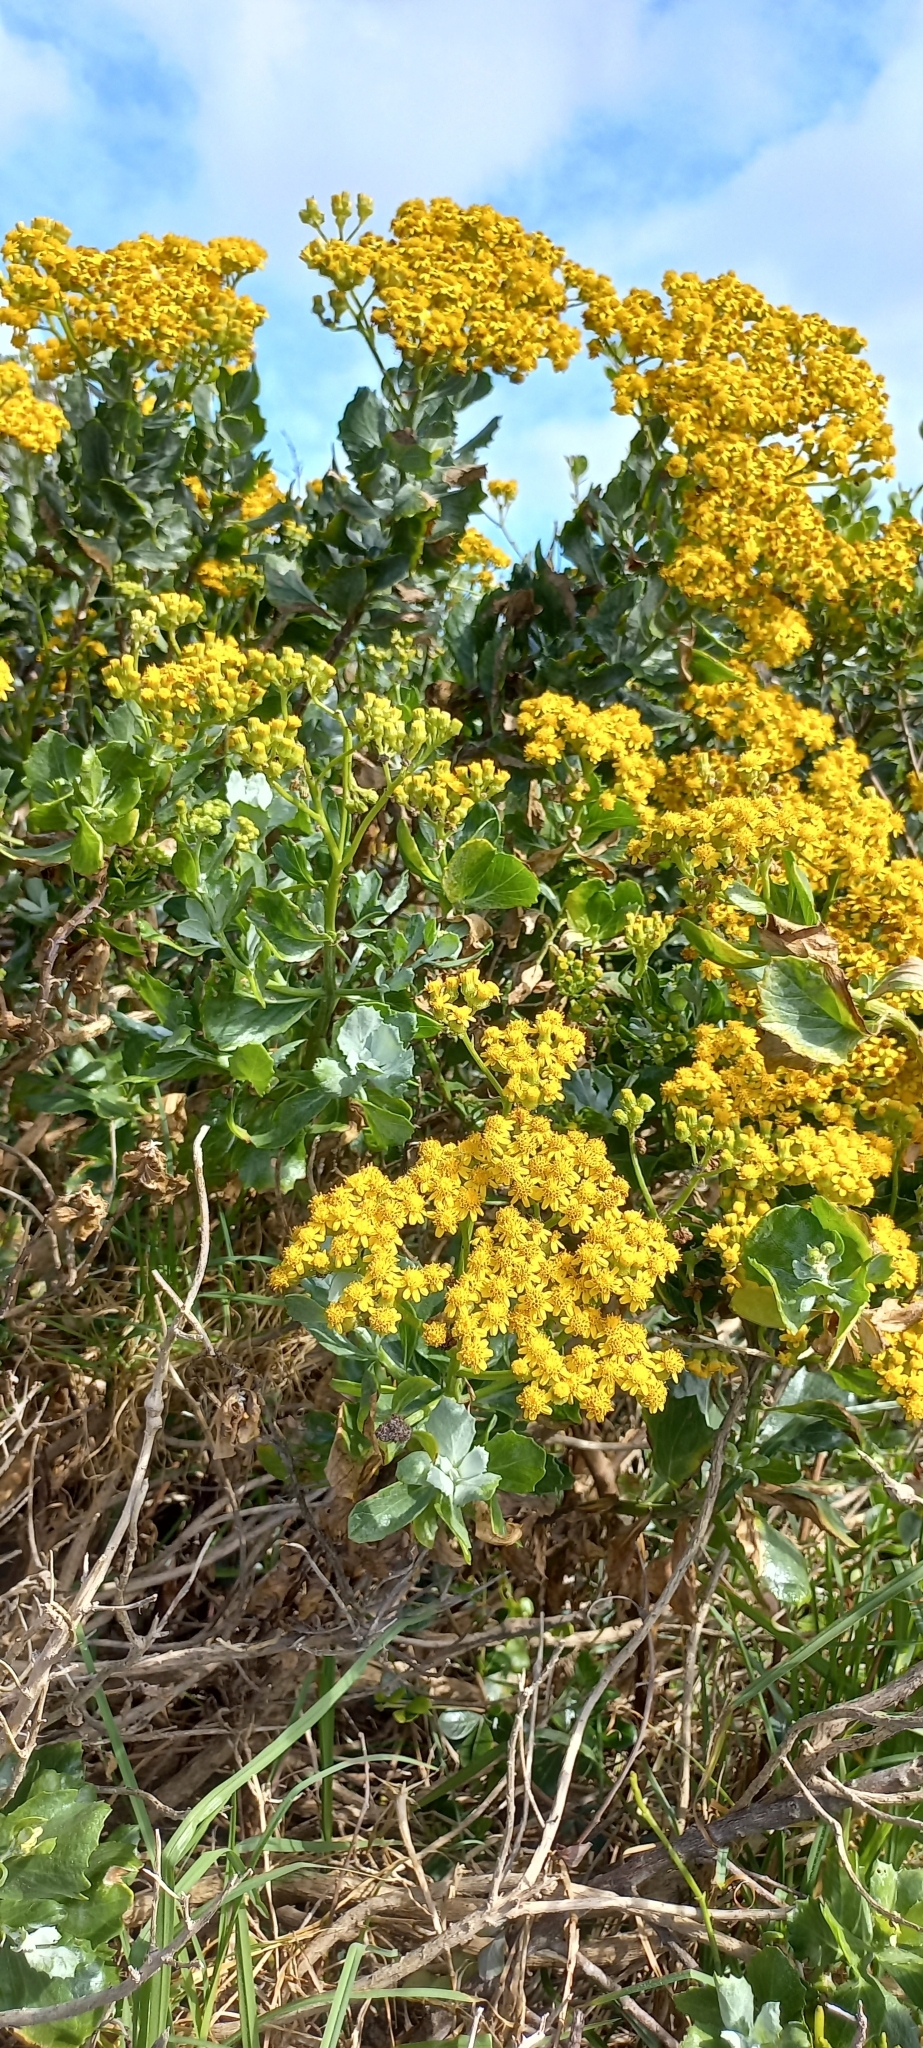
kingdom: Plantae
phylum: Tracheophyta
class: Magnoliopsida
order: Asterales
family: Asteraceae
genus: Senecio
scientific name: Senecio halimifolius
